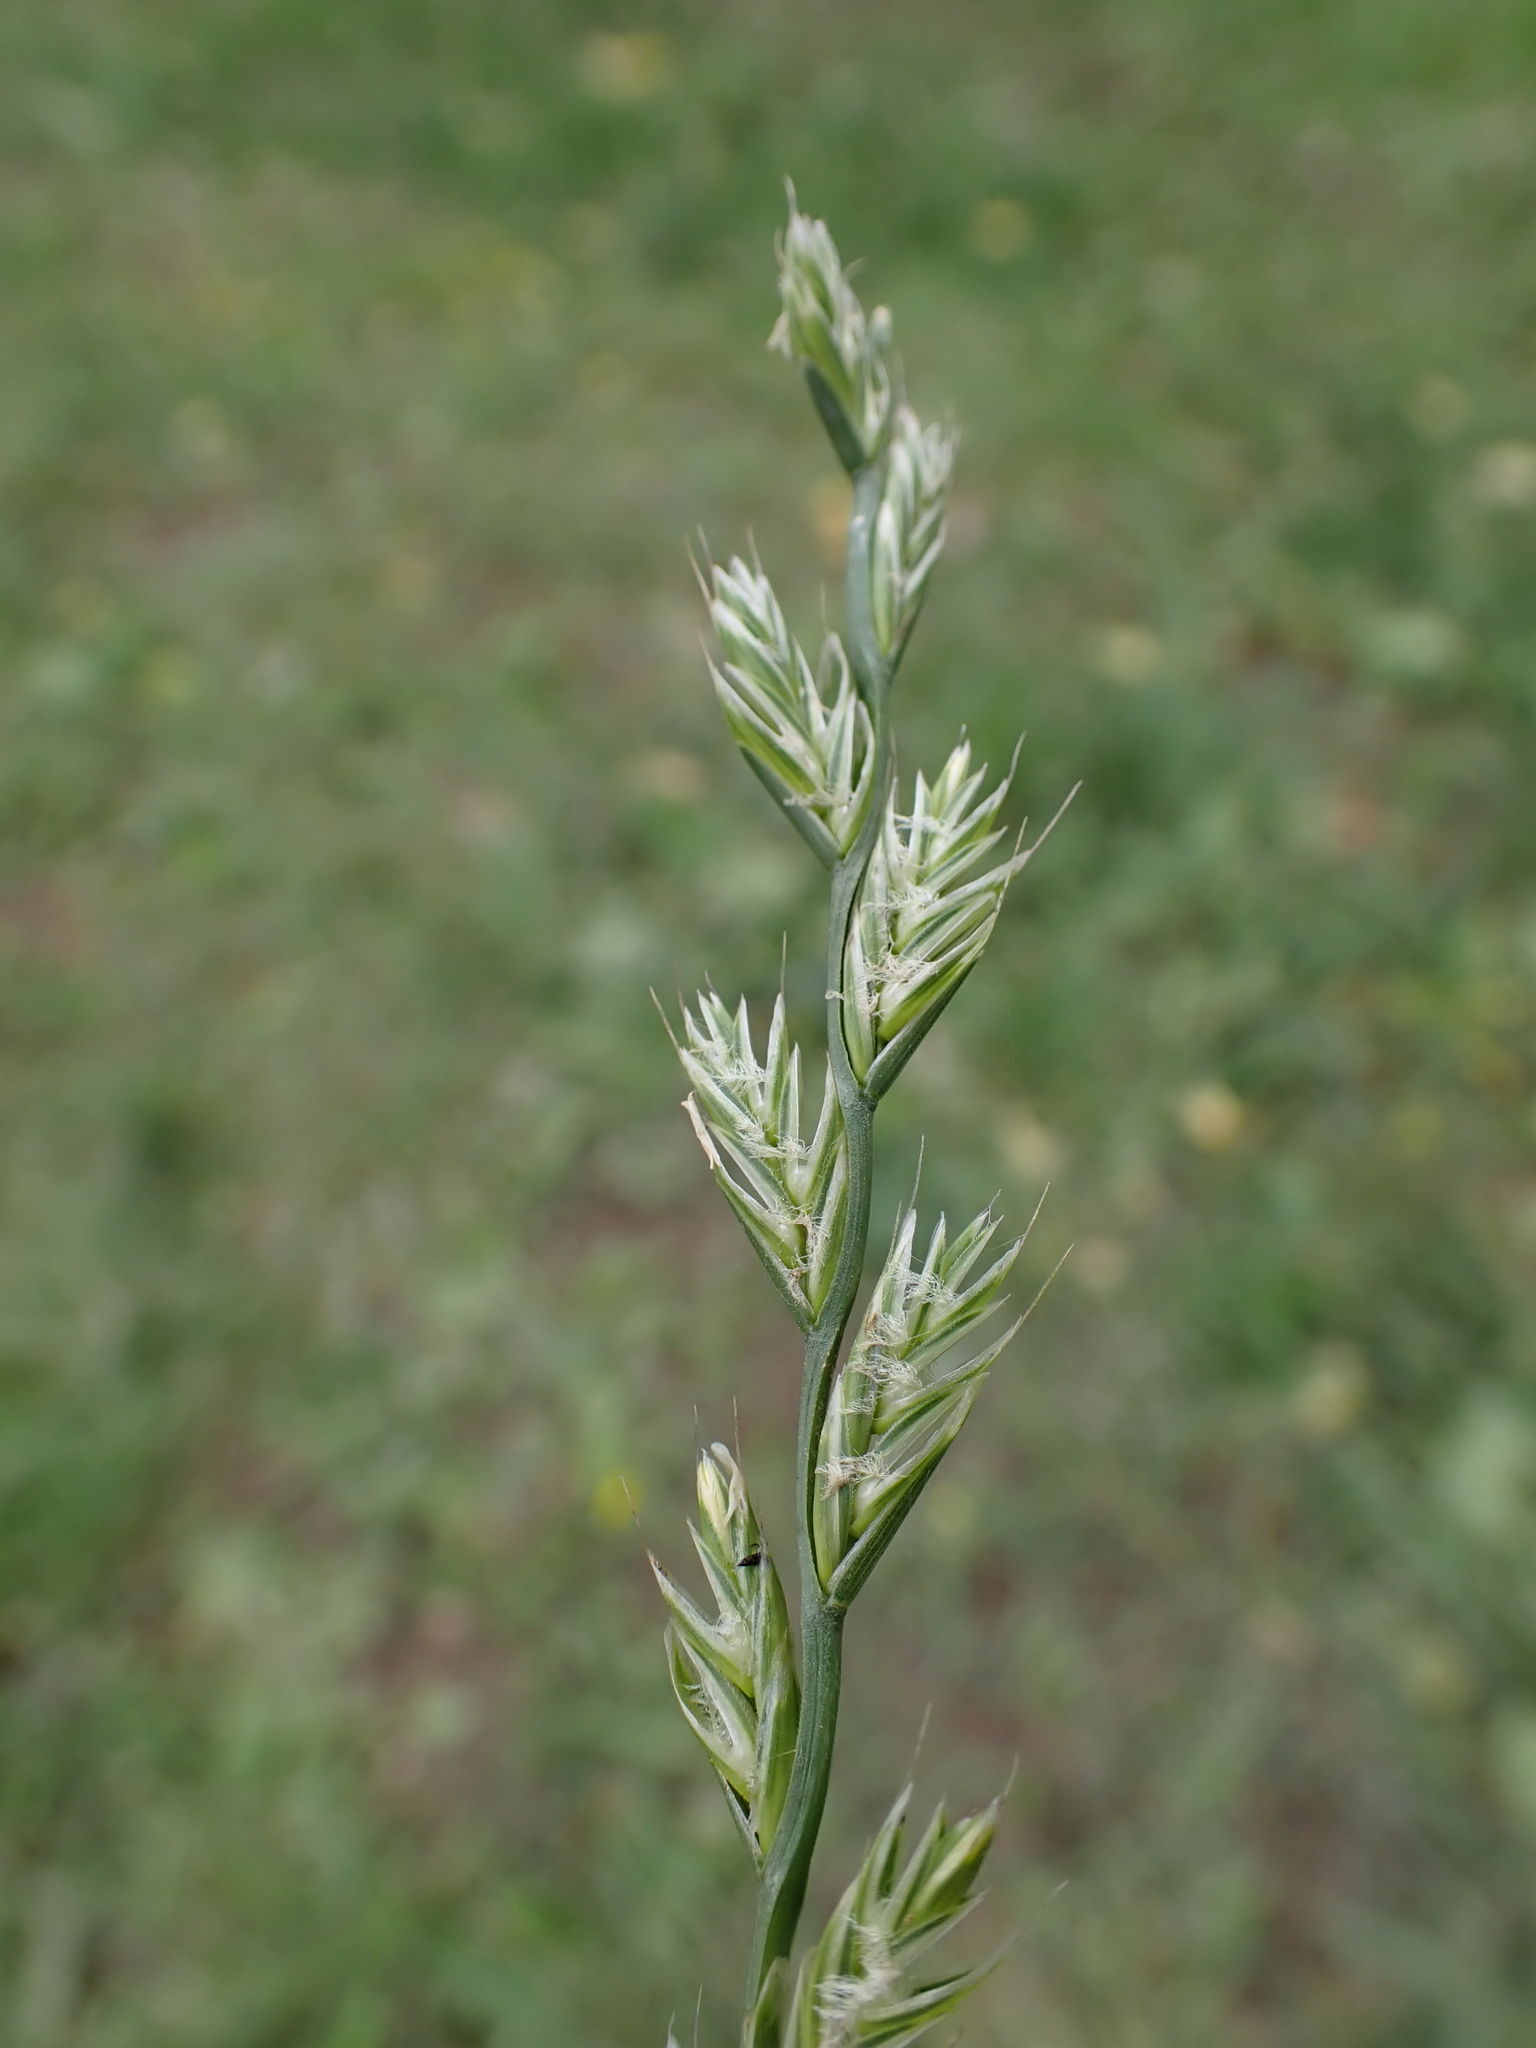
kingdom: Plantae
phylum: Tracheophyta
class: Liliopsida
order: Poales
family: Poaceae
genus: Lolium
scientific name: Lolium multiflorum
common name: Annual ryegrass
